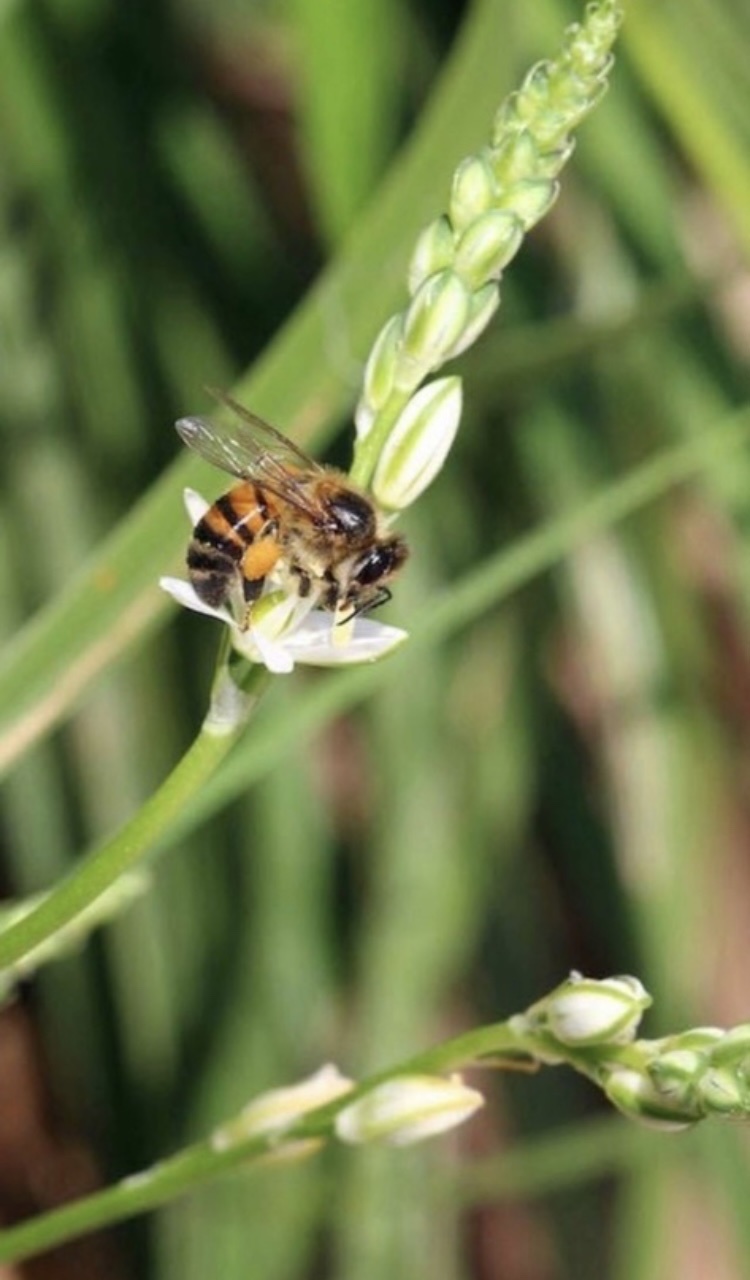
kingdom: Animalia
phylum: Arthropoda
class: Insecta
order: Hymenoptera
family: Apidae
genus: Apis
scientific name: Apis mellifera
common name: Honey bee
